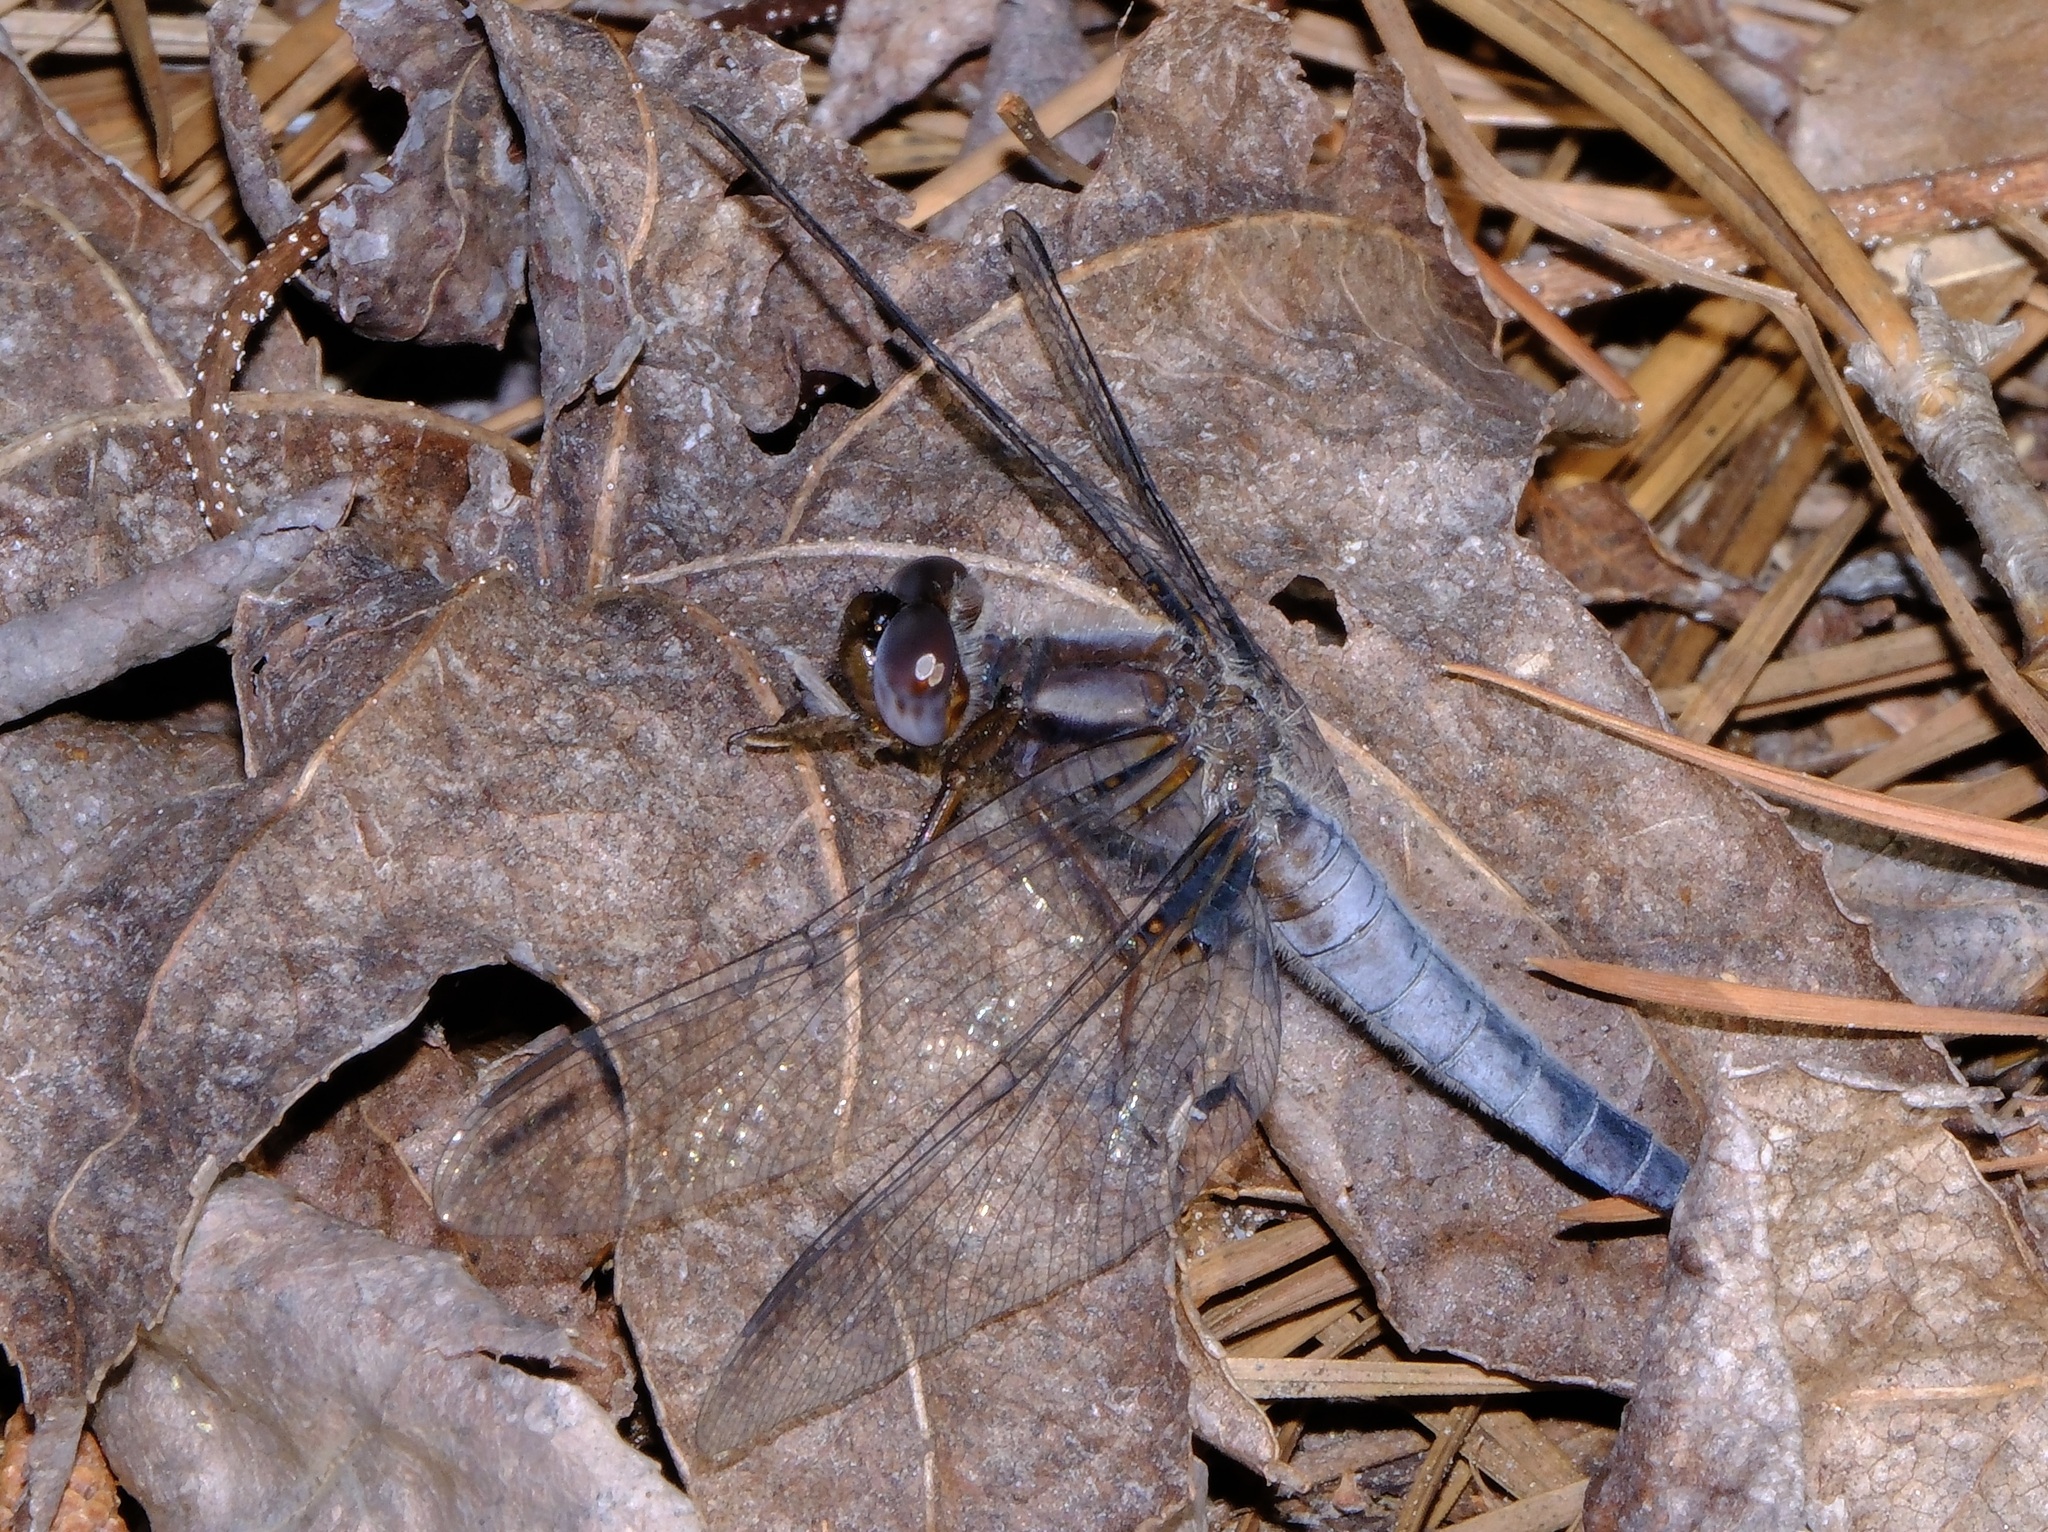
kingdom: Animalia
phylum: Arthropoda
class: Insecta
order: Odonata
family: Libellulidae
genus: Ladona
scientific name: Ladona deplanata
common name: Blue corporal
